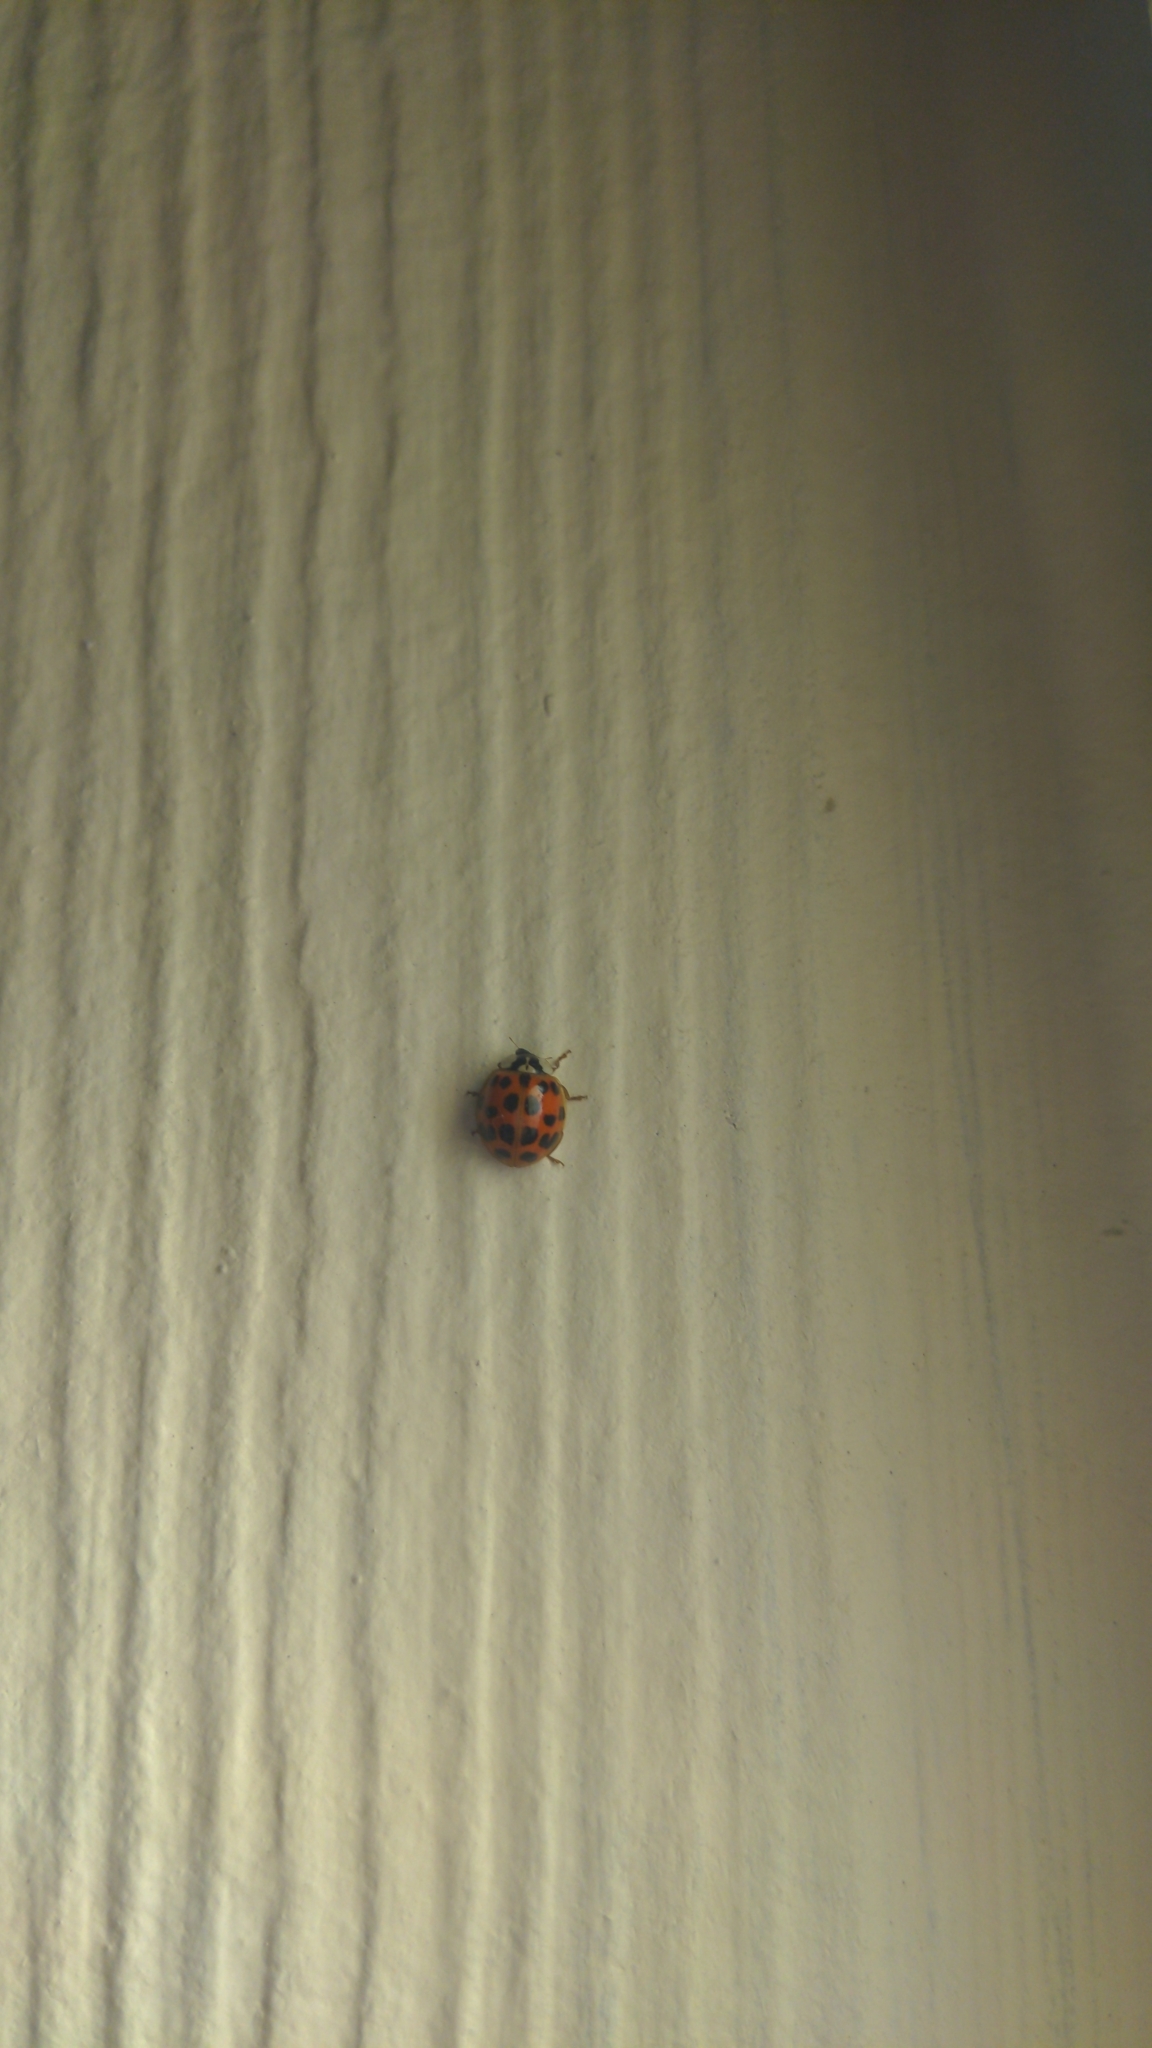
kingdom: Animalia
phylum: Arthropoda
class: Insecta
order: Coleoptera
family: Coccinellidae
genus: Harmonia
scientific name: Harmonia axyridis
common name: Harlequin ladybird
